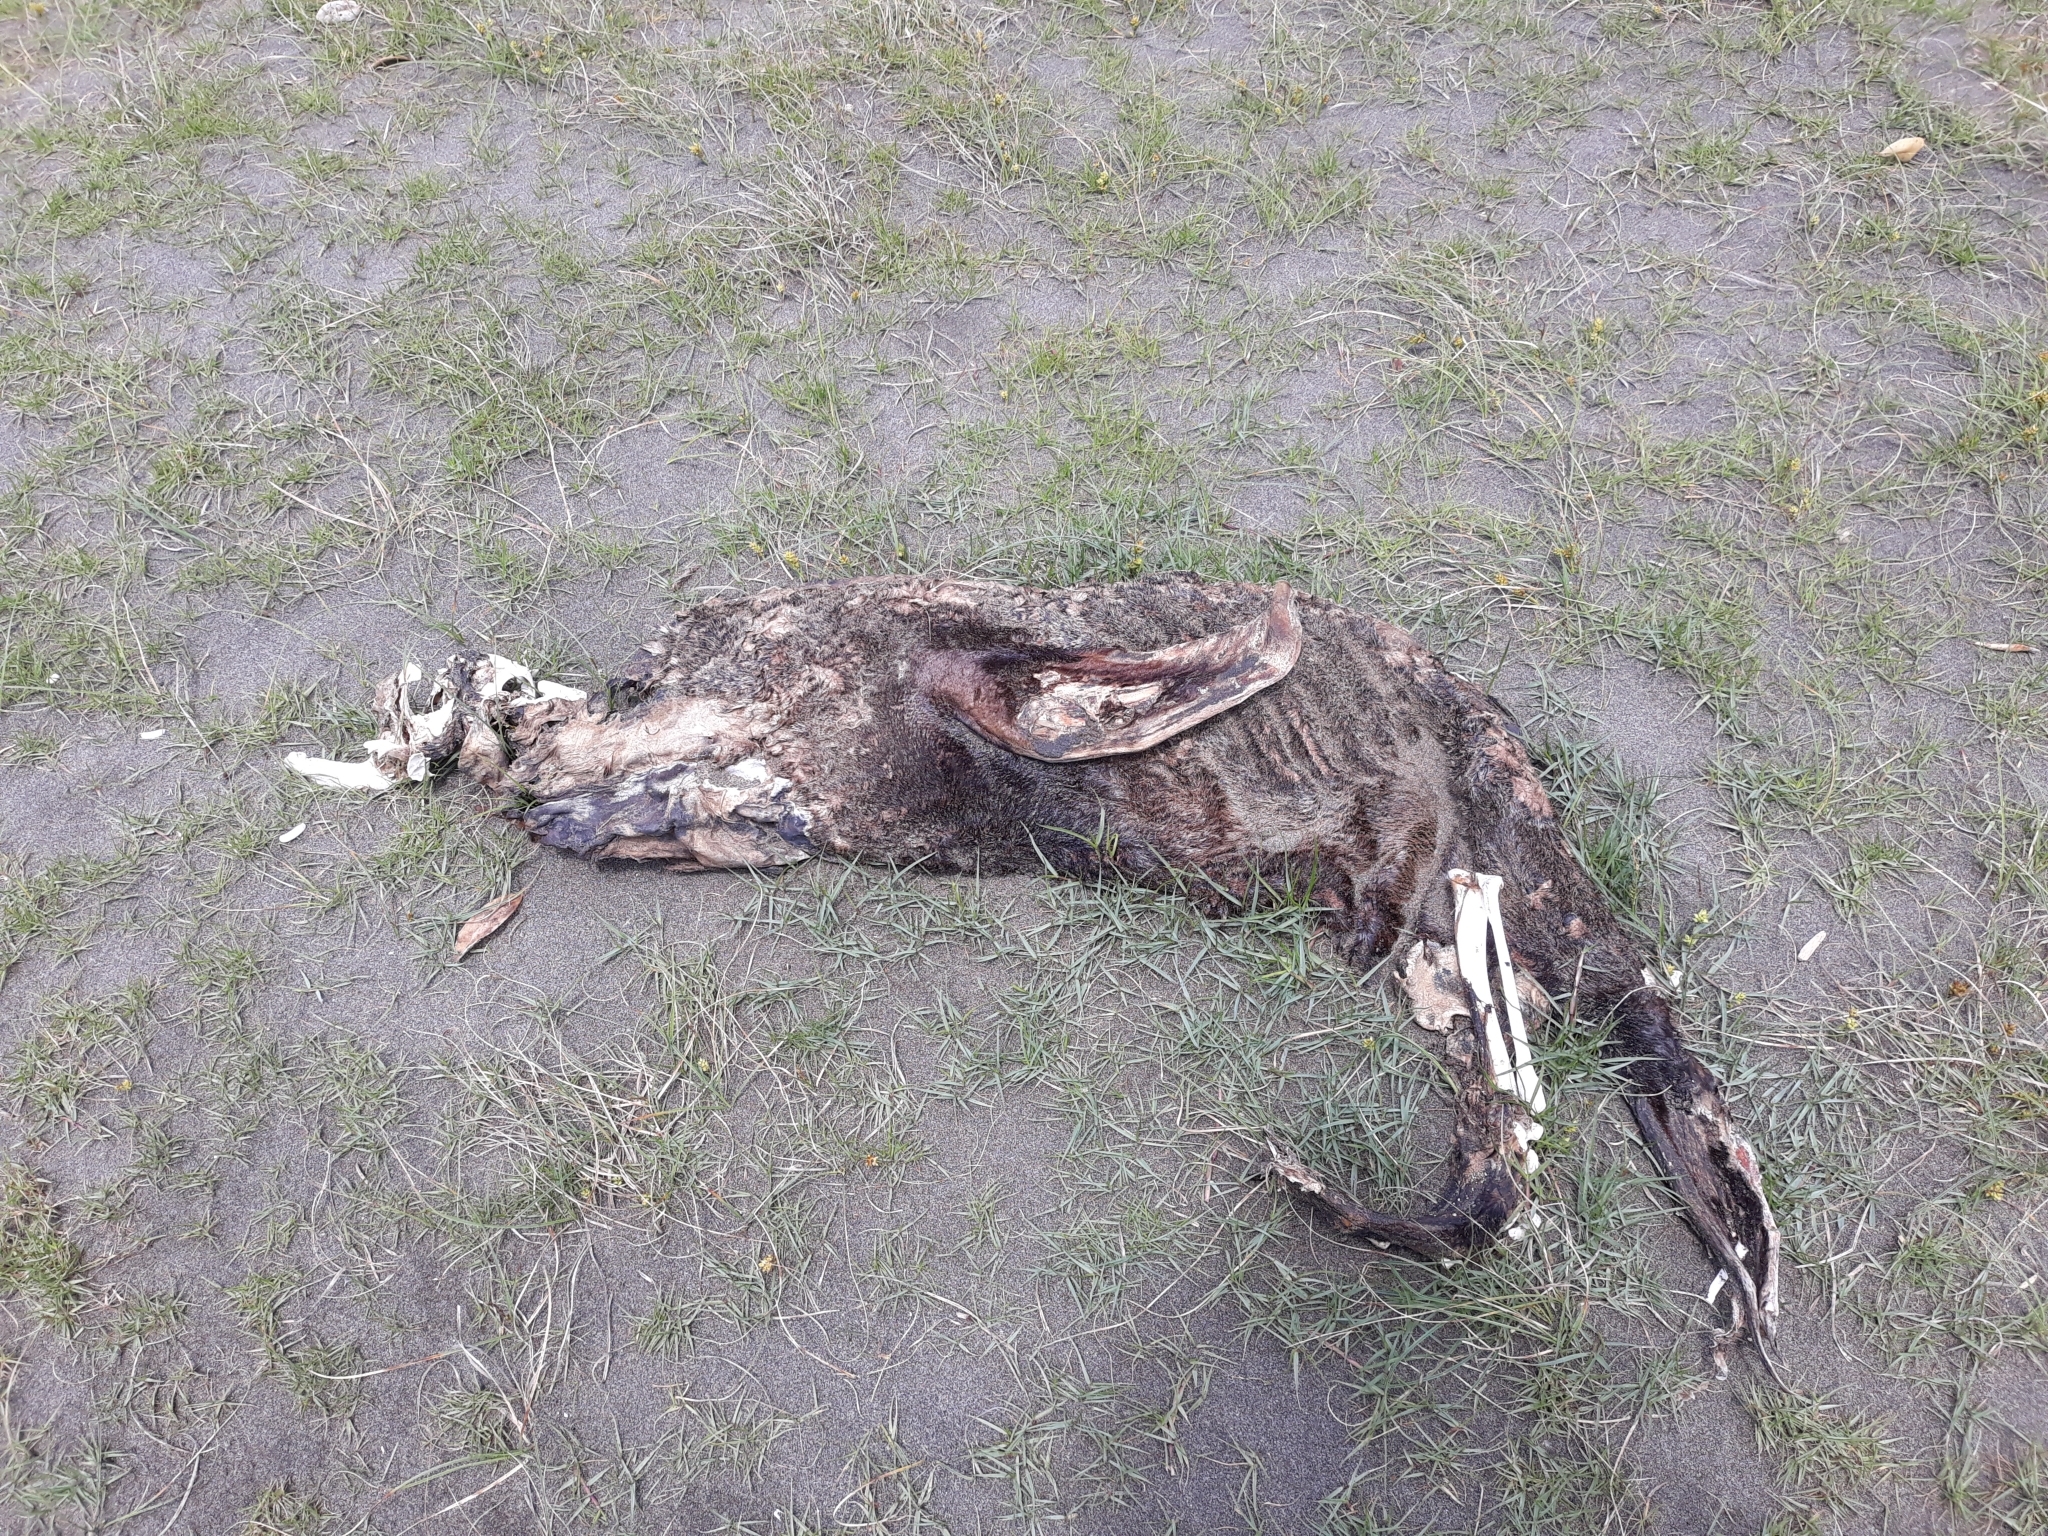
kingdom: Animalia
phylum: Chordata
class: Mammalia
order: Carnivora
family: Otariidae
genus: Arctocephalus
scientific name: Arctocephalus forsteri
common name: New zealand fur seal
